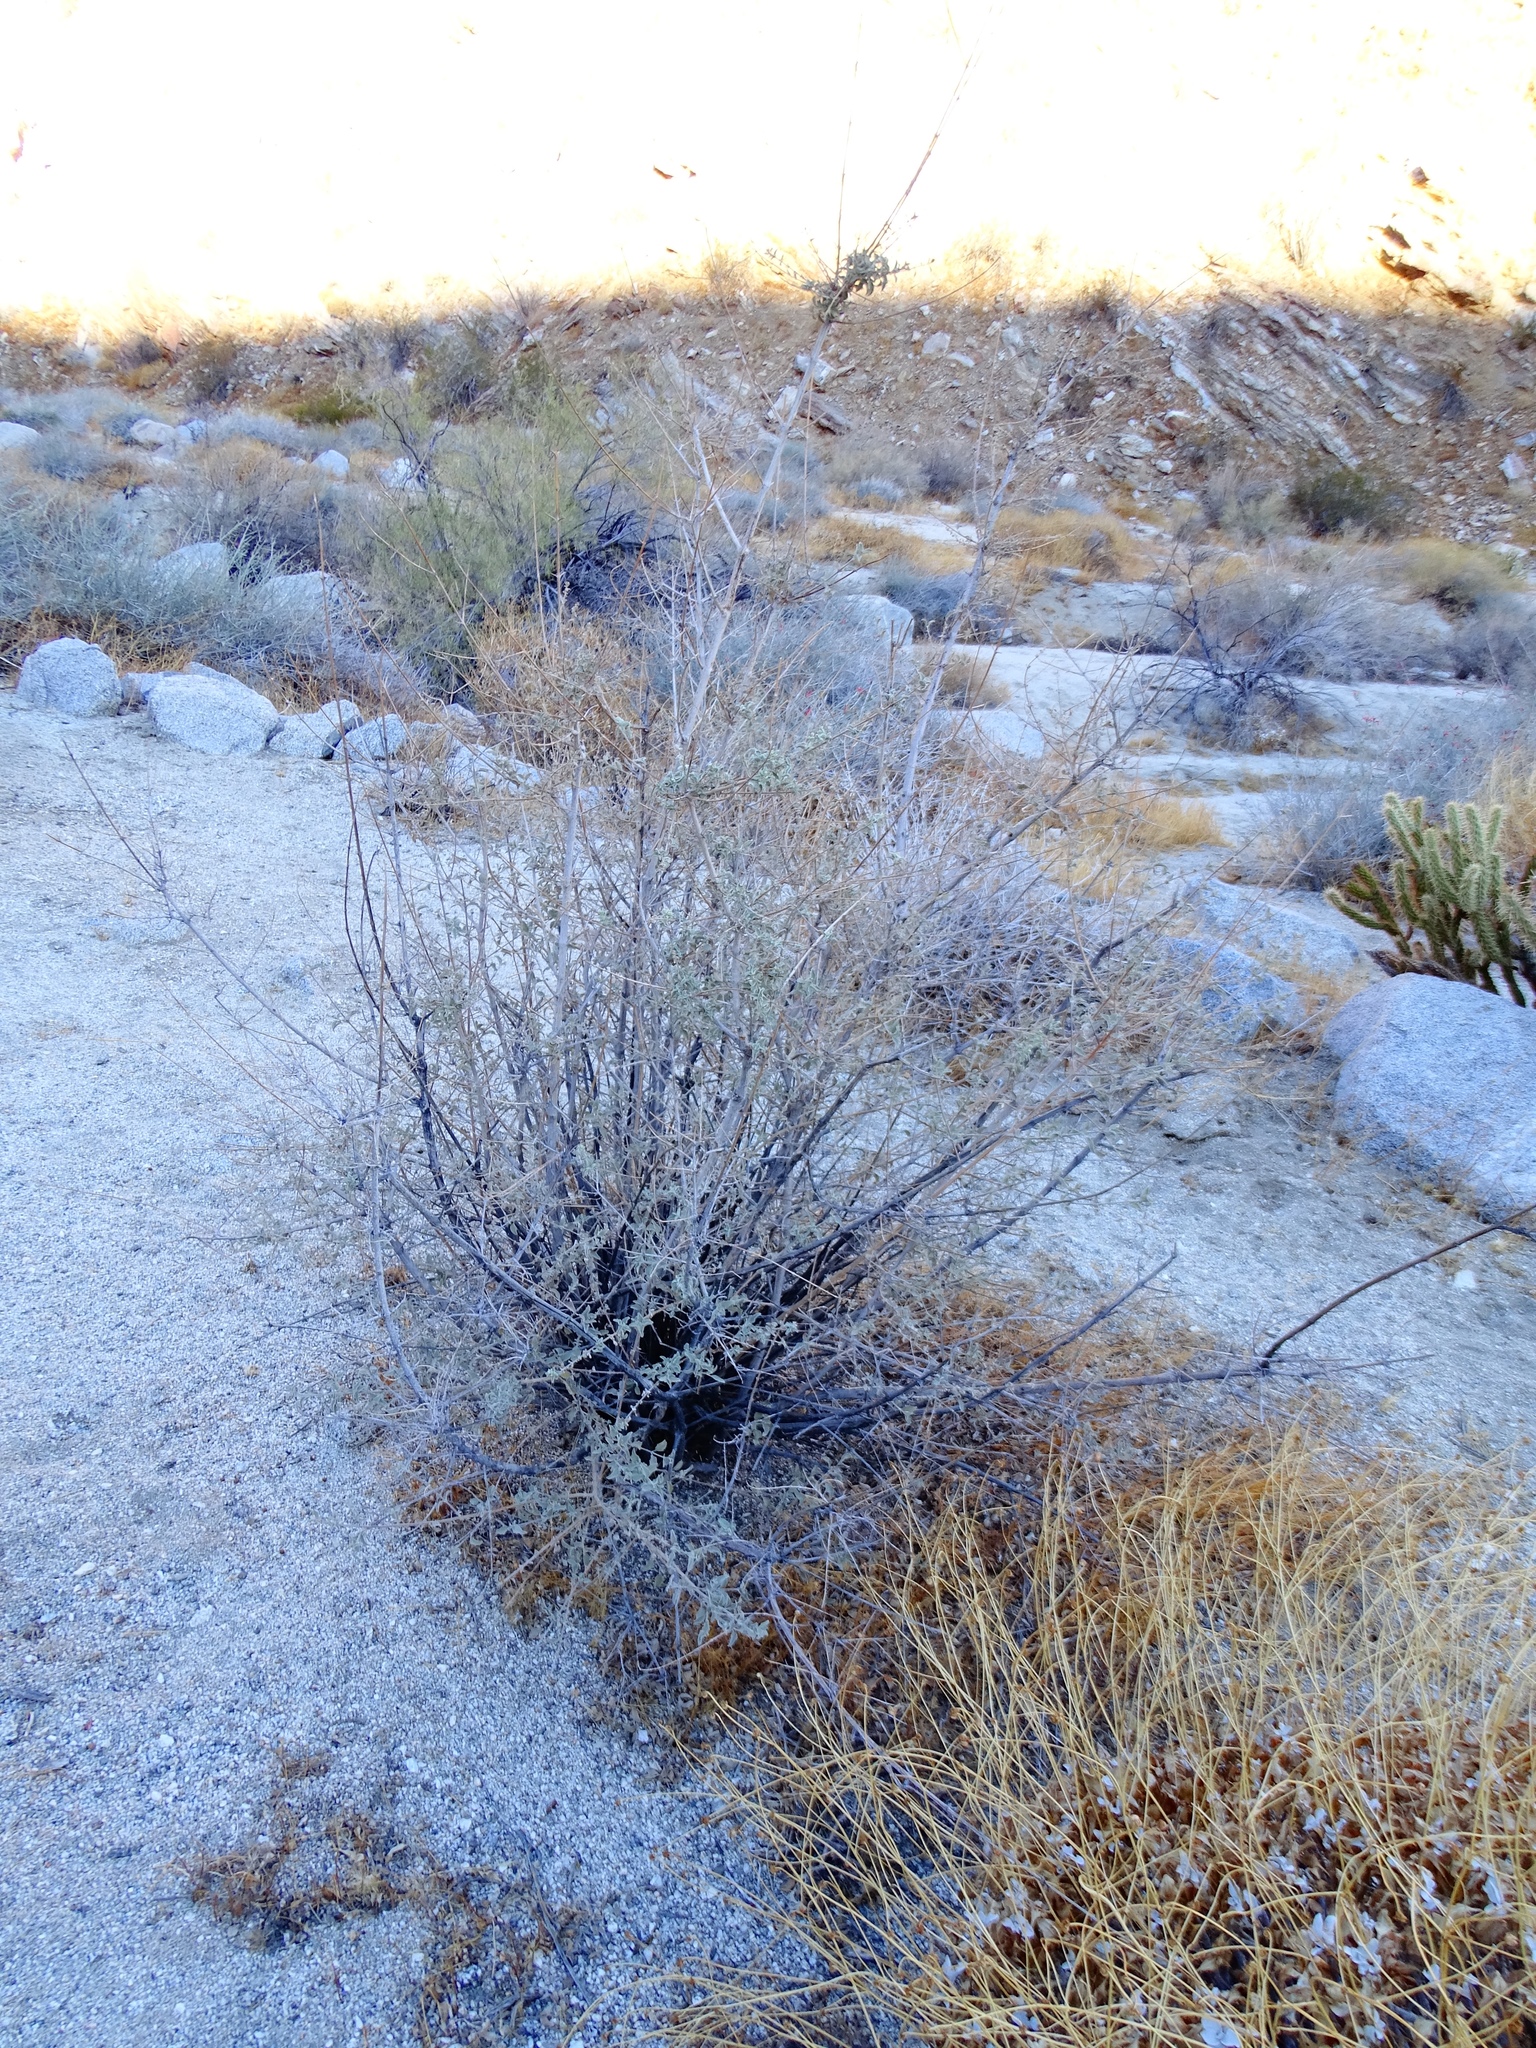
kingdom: Plantae
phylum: Tracheophyta
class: Magnoliopsida
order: Lamiales
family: Lamiaceae
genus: Condea
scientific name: Condea emoryi
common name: Chia
